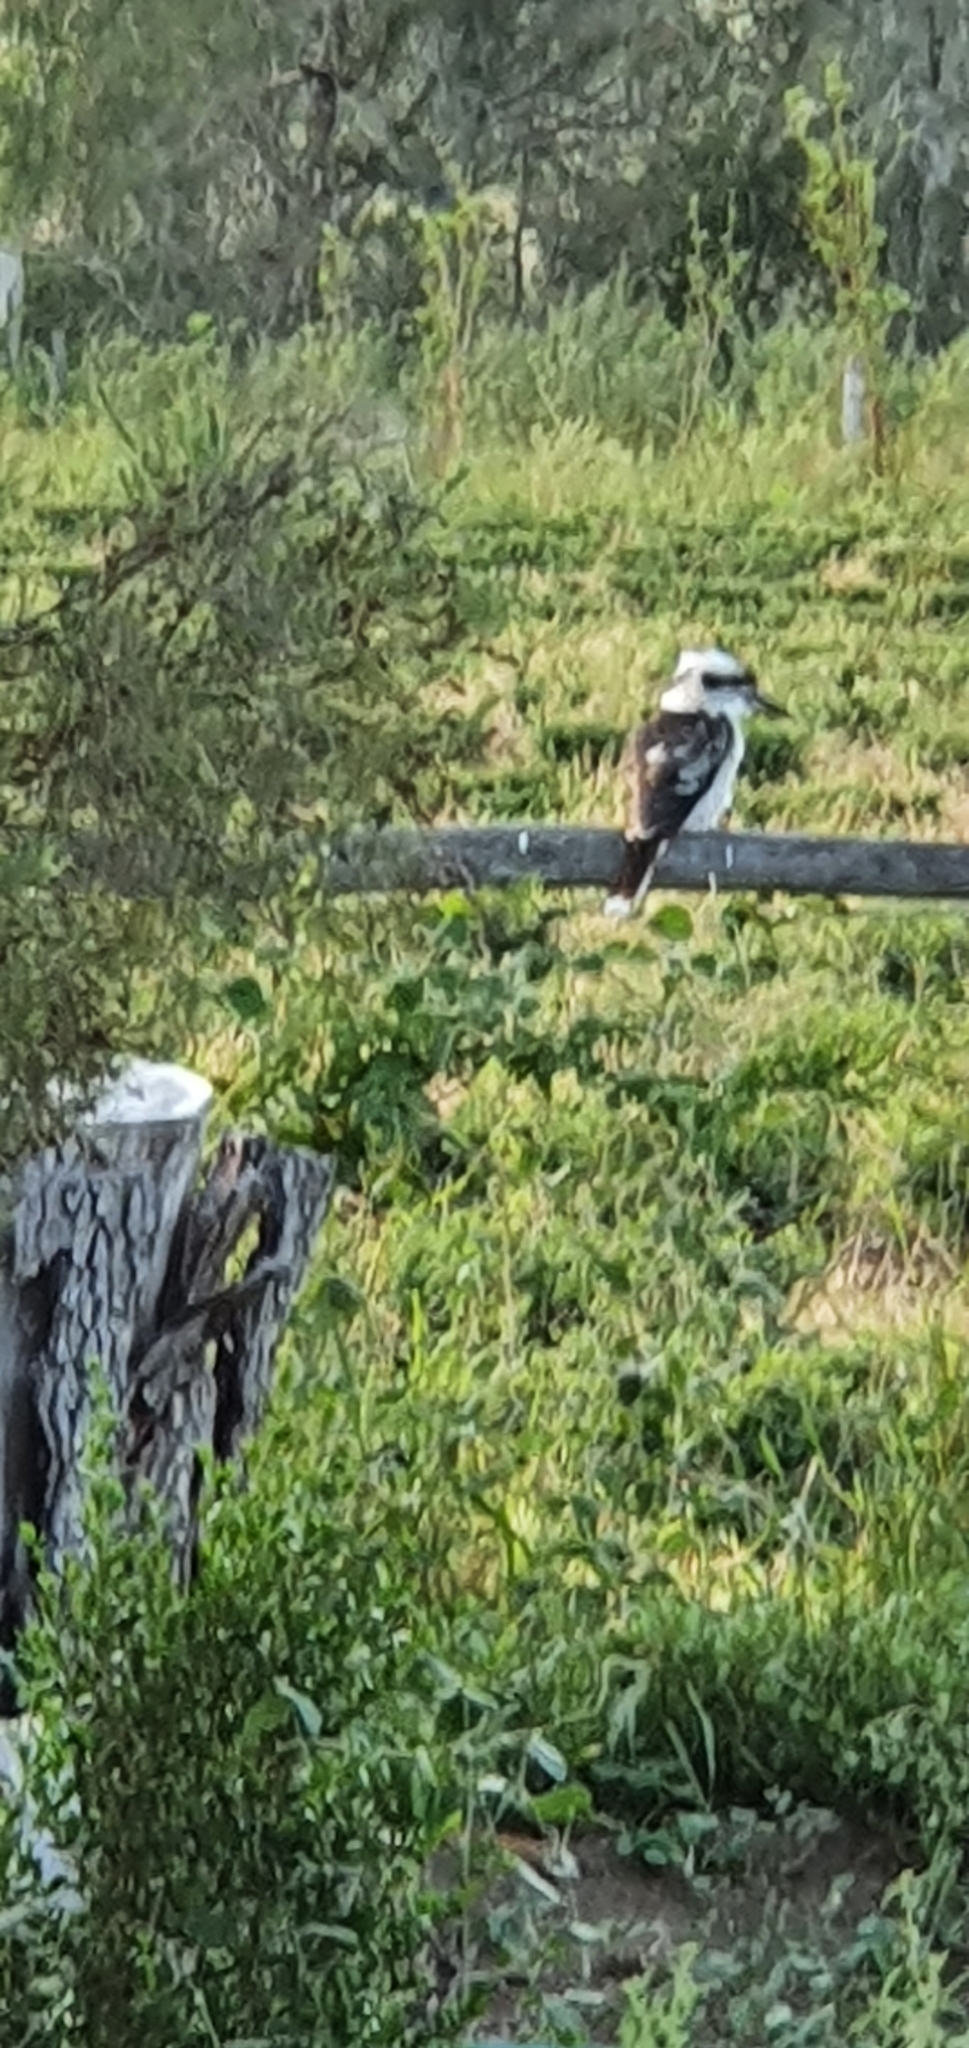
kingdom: Animalia
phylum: Chordata
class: Aves
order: Coraciiformes
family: Alcedinidae
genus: Dacelo
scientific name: Dacelo novaeguineae
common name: Laughing kookaburra
